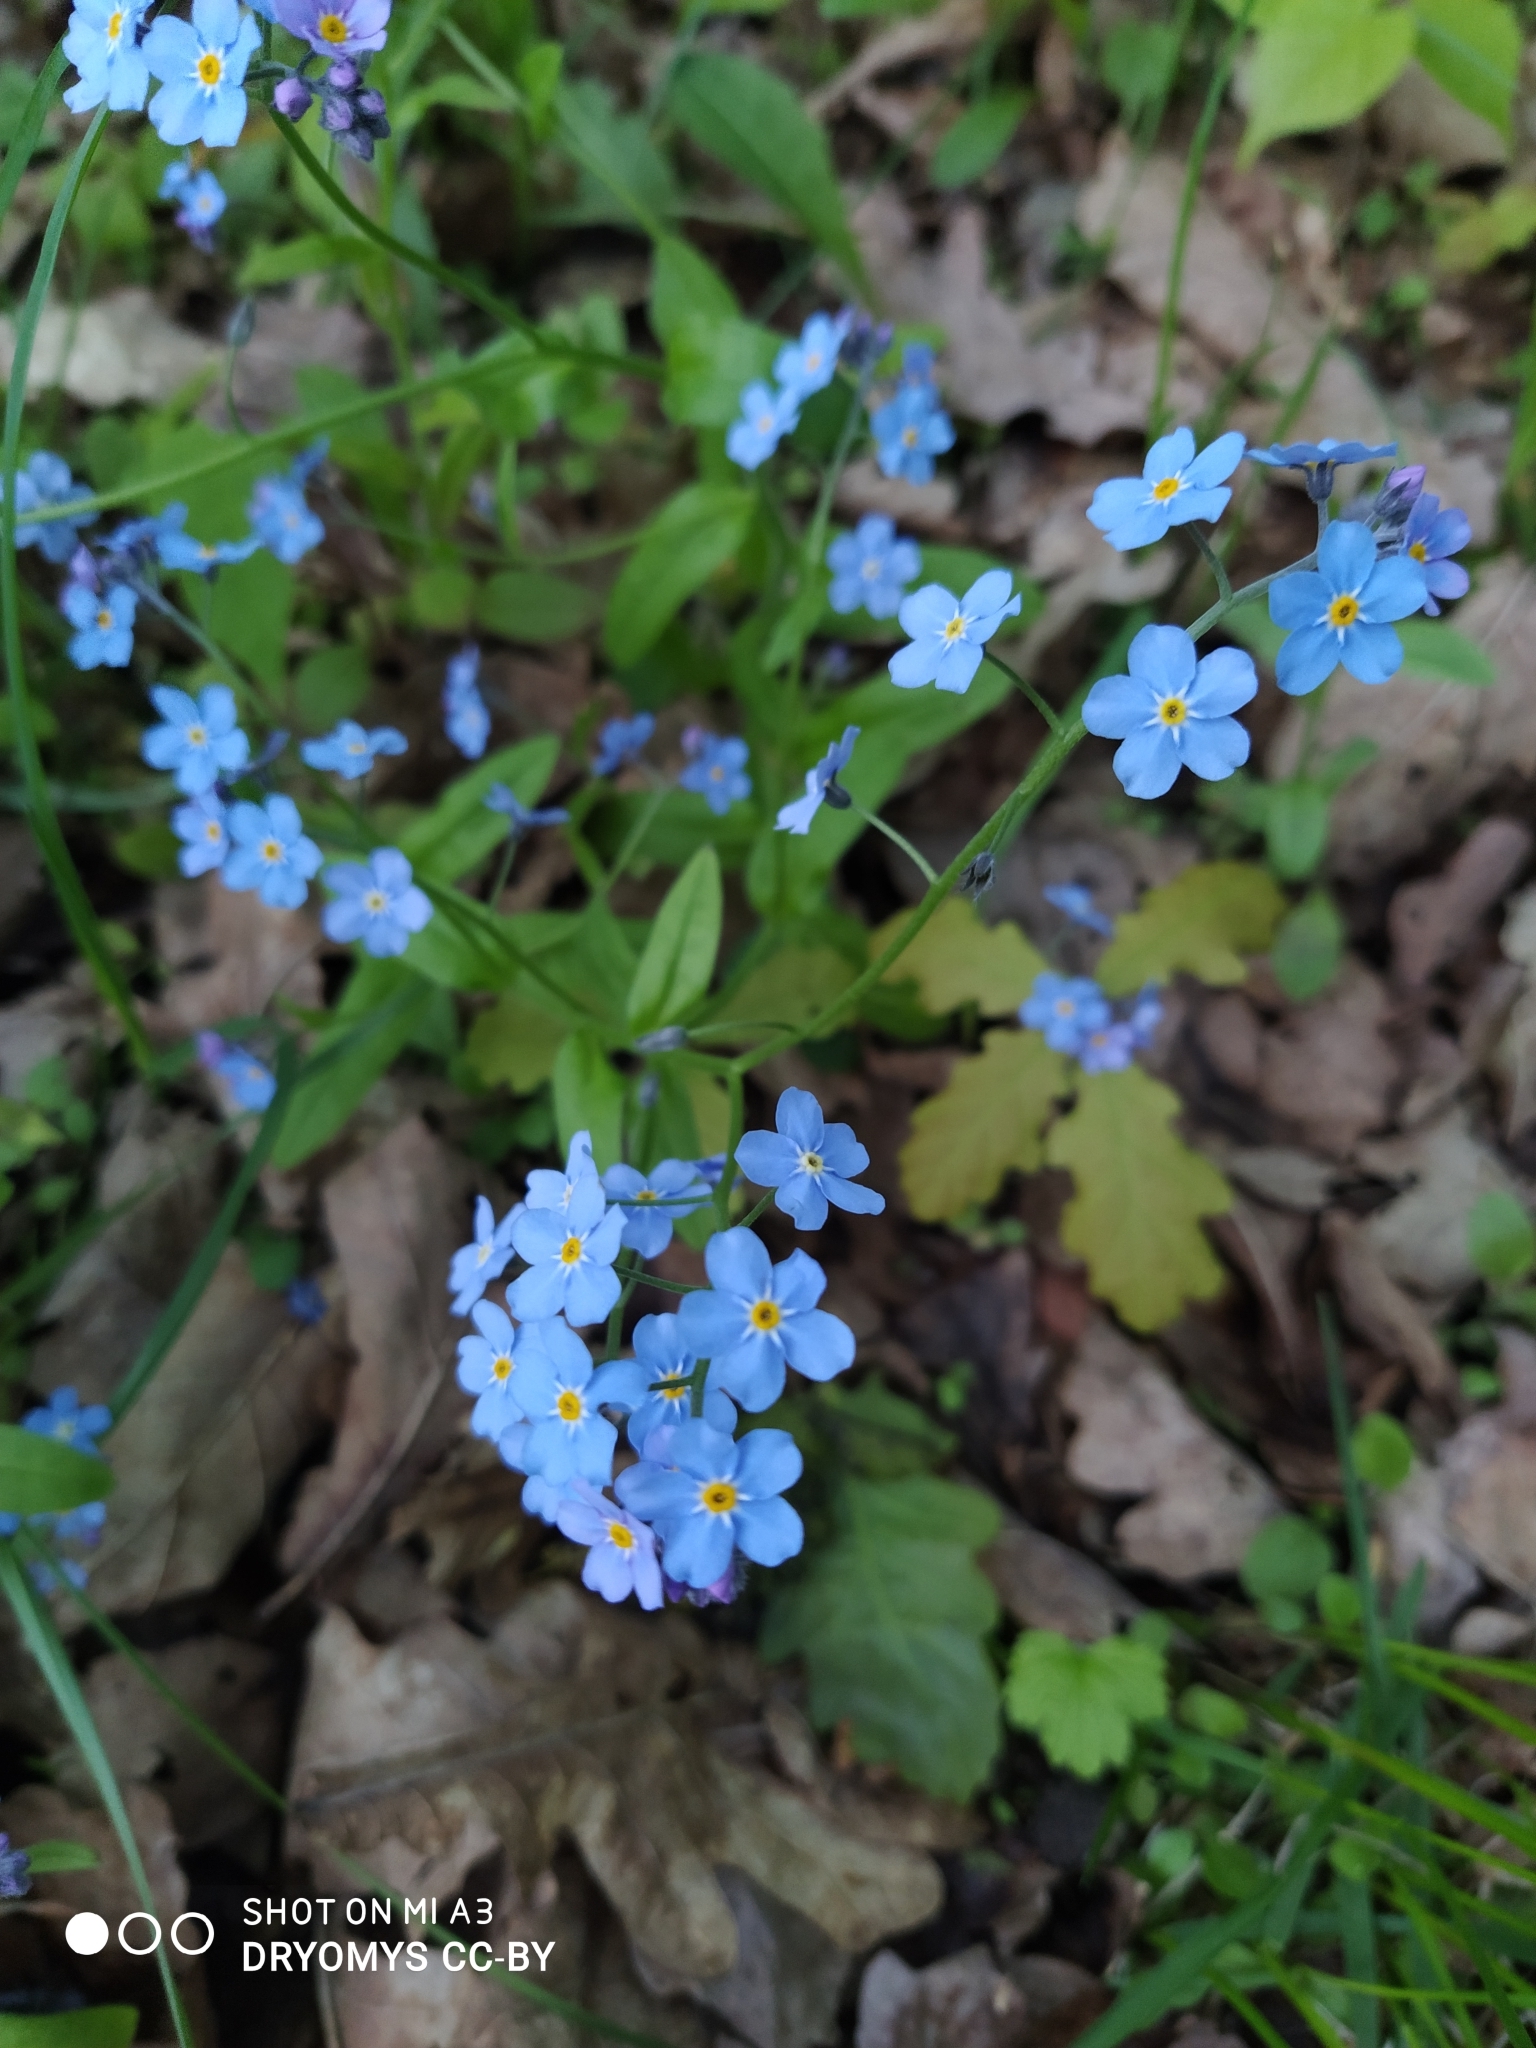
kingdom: Plantae
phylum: Tracheophyta
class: Magnoliopsida
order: Boraginales
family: Boraginaceae
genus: Myosotis
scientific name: Myosotis sylvatica
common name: Wood forget-me-not
